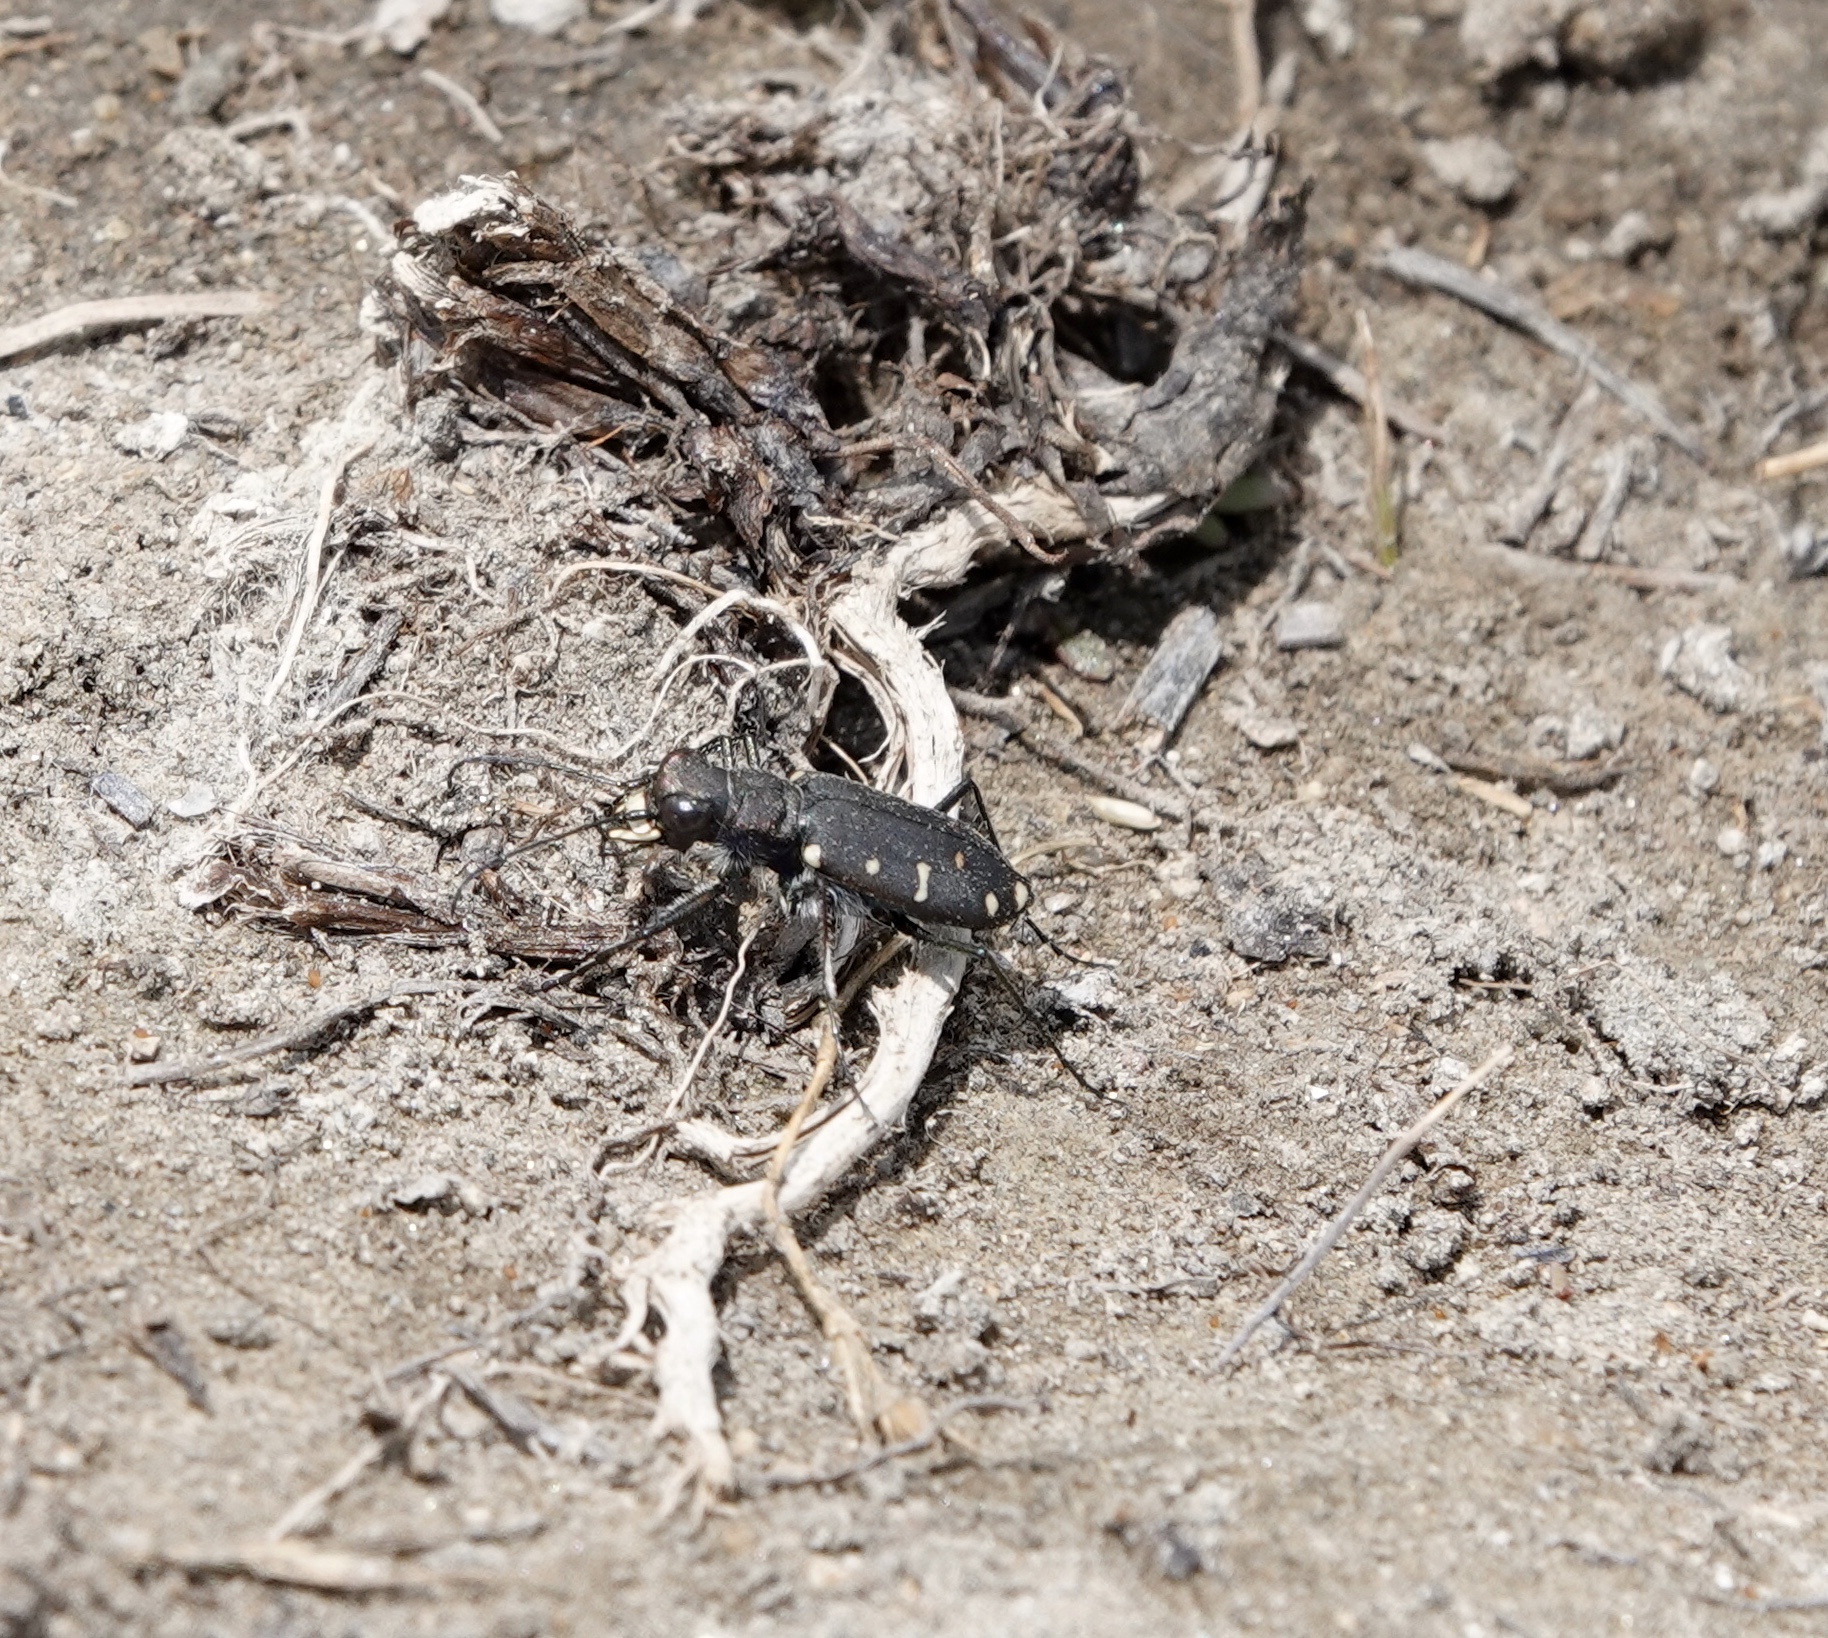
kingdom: Animalia
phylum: Arthropoda
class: Insecta
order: Coleoptera
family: Carabidae
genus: Cicindela
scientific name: Cicindela oregona
